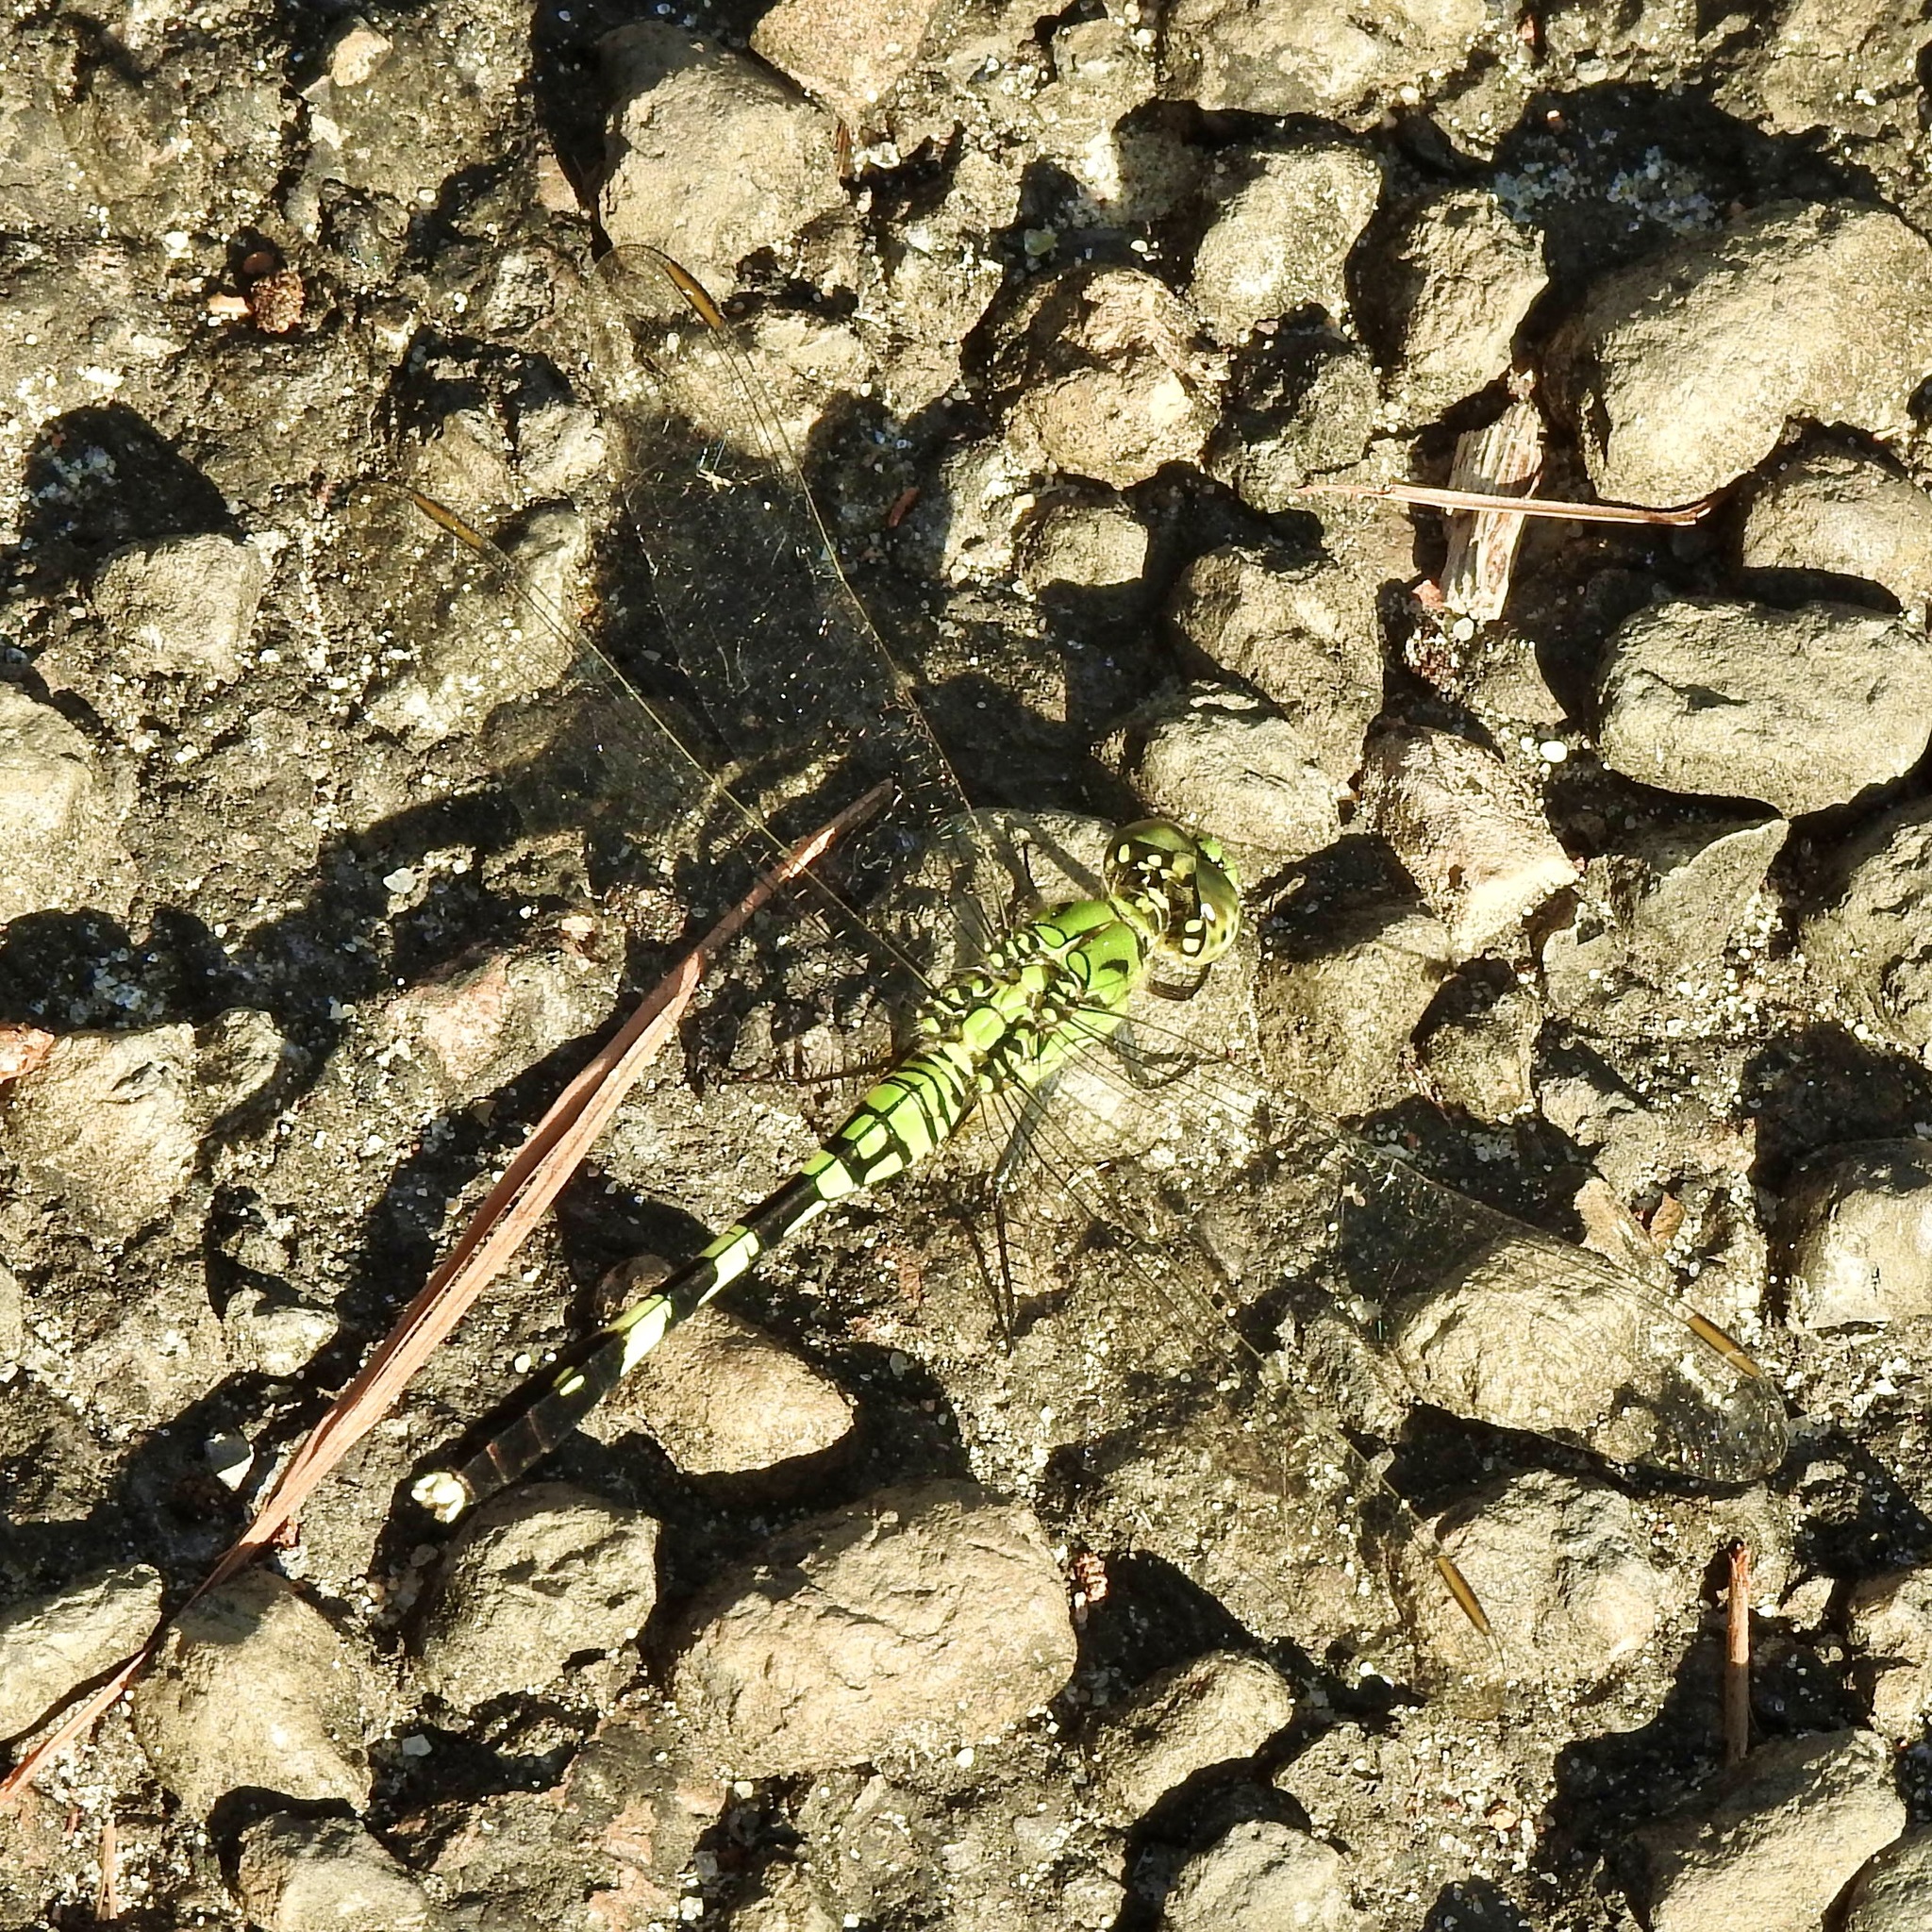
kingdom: Animalia
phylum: Arthropoda
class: Insecta
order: Odonata
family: Libellulidae
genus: Erythemis
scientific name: Erythemis simplicicollis
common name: Eastern pondhawk
